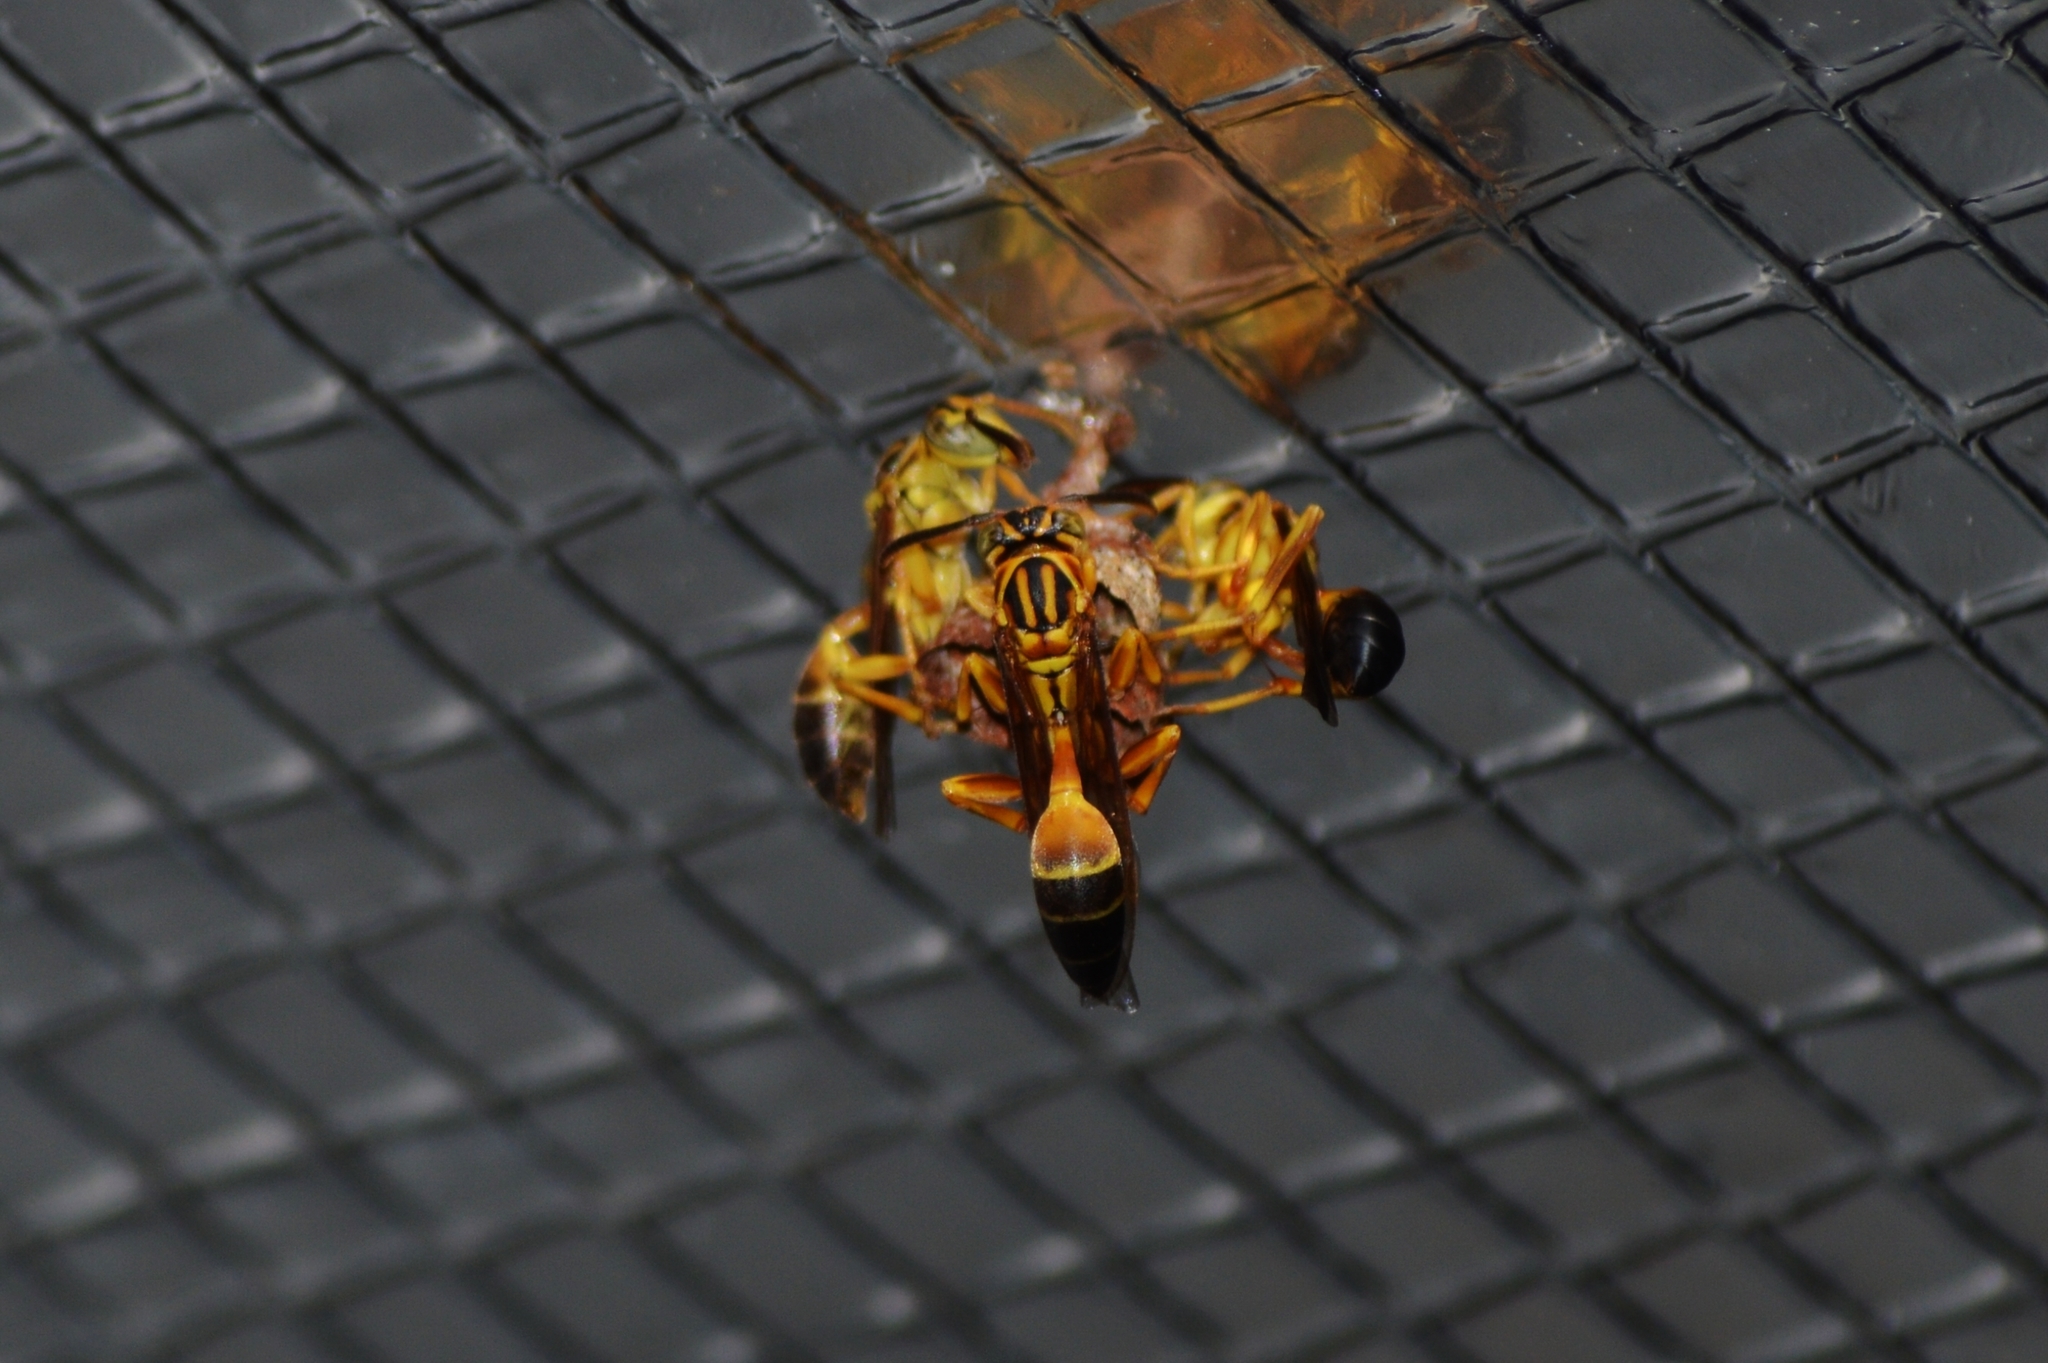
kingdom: Animalia
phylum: Arthropoda
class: Insecta
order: Hymenoptera
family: Vespidae
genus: Mischocyttarus
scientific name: Mischocyttarus cerberus
